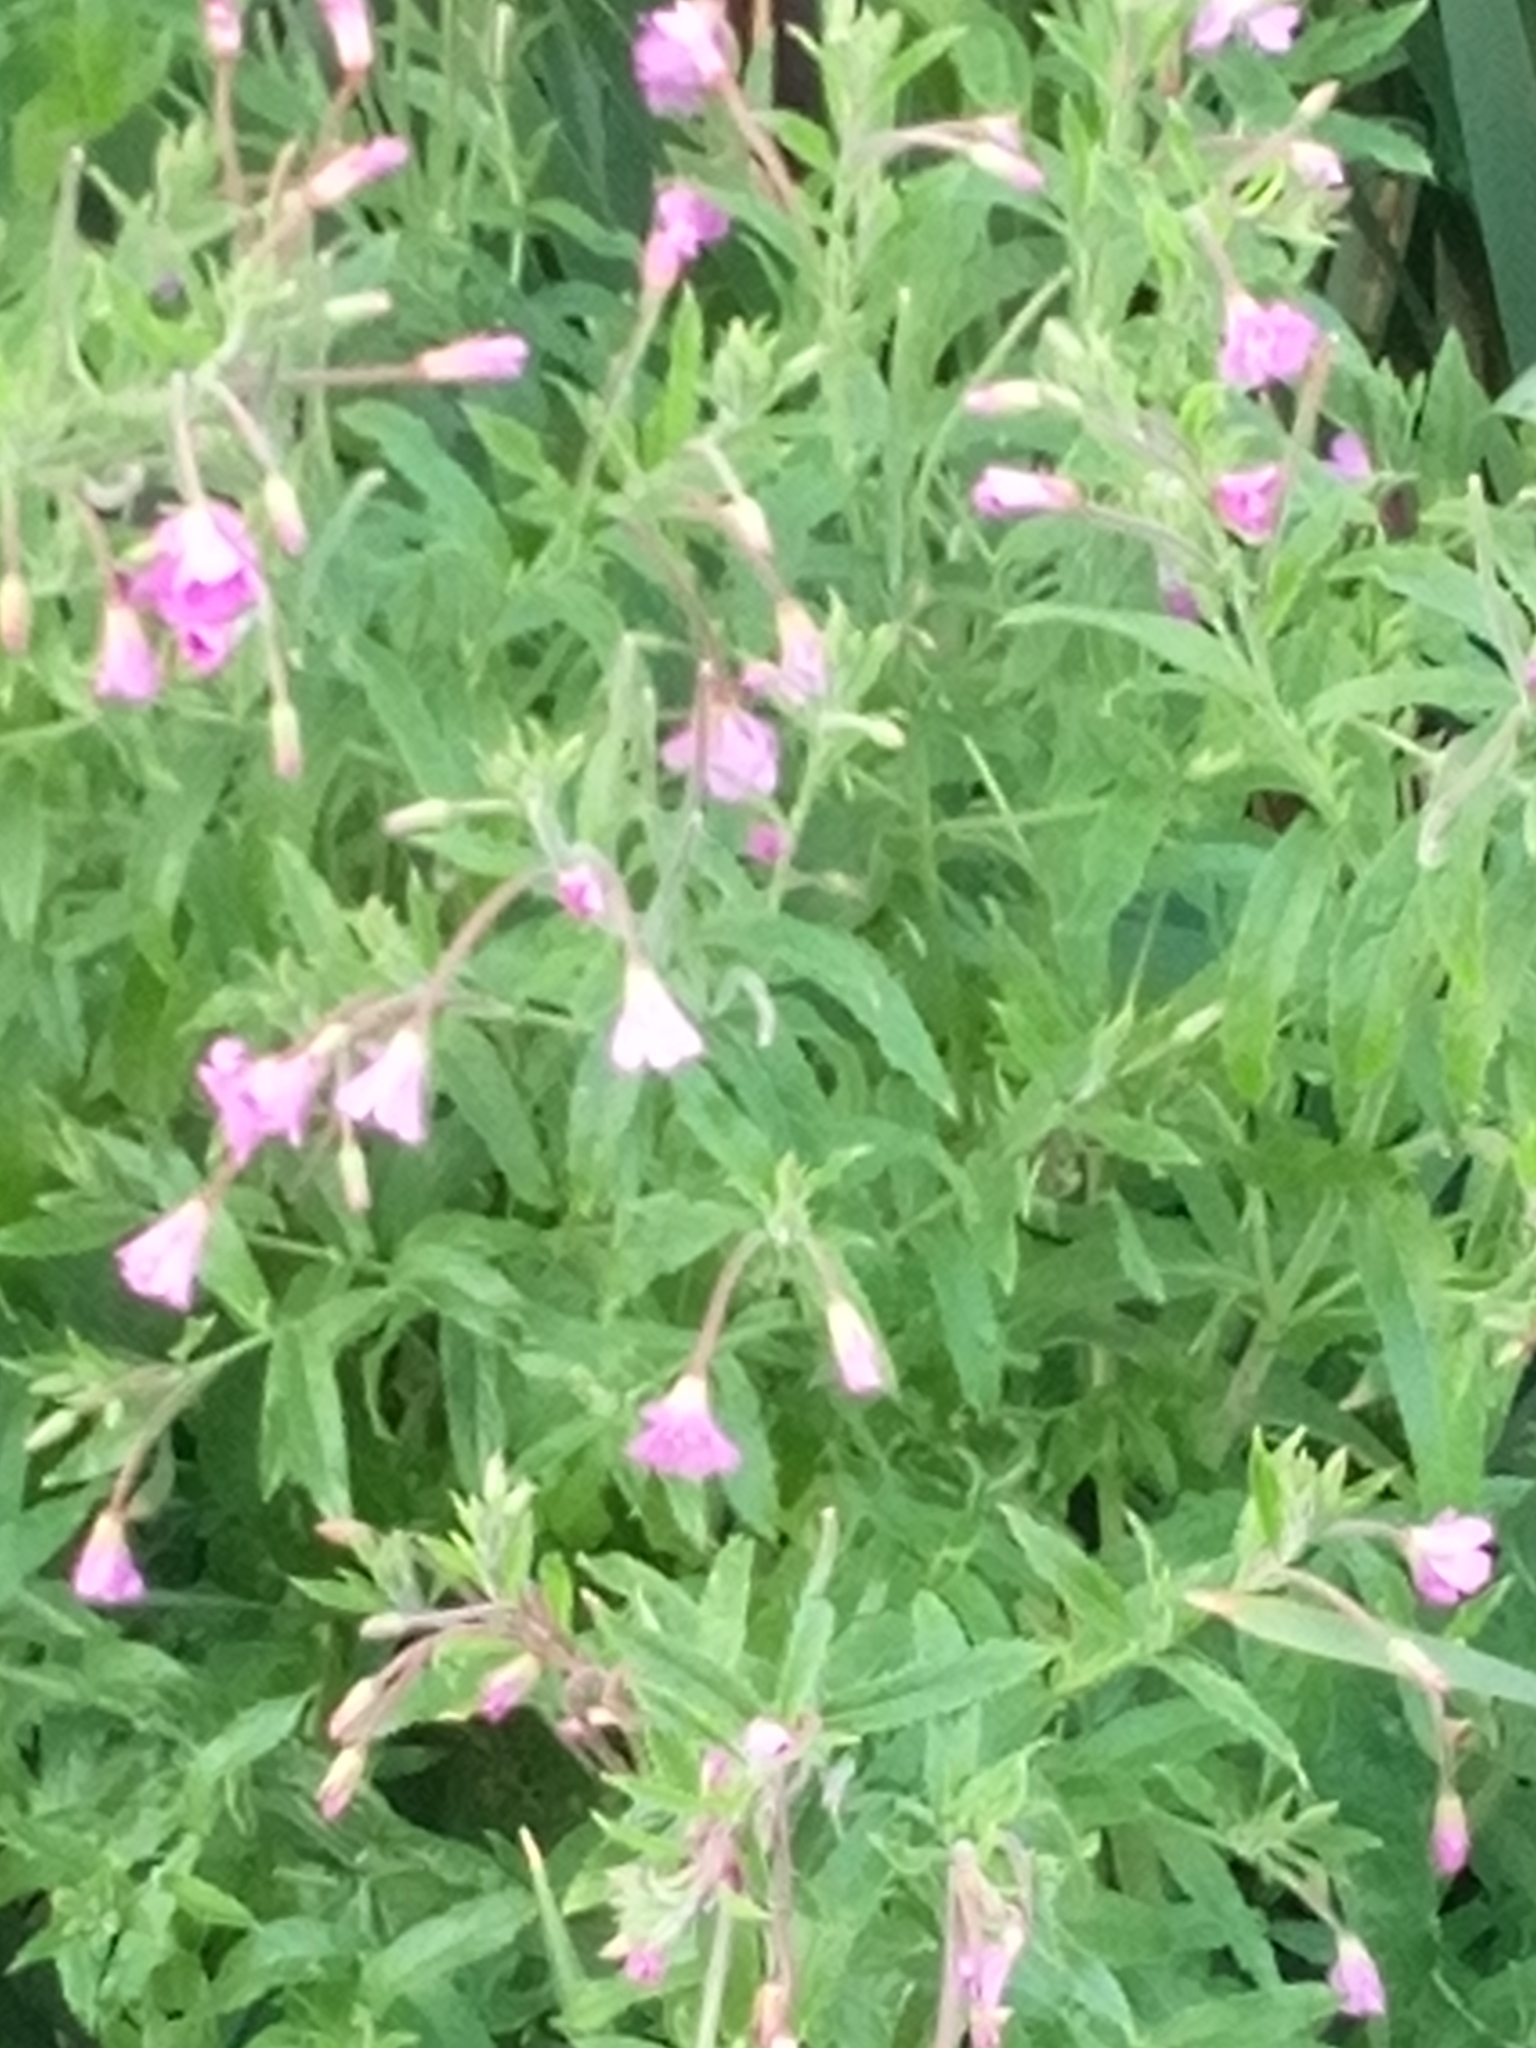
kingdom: Plantae
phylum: Tracheophyta
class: Magnoliopsida
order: Myrtales
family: Onagraceae
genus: Epilobium
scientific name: Epilobium hirsutum
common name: Great willowherb
